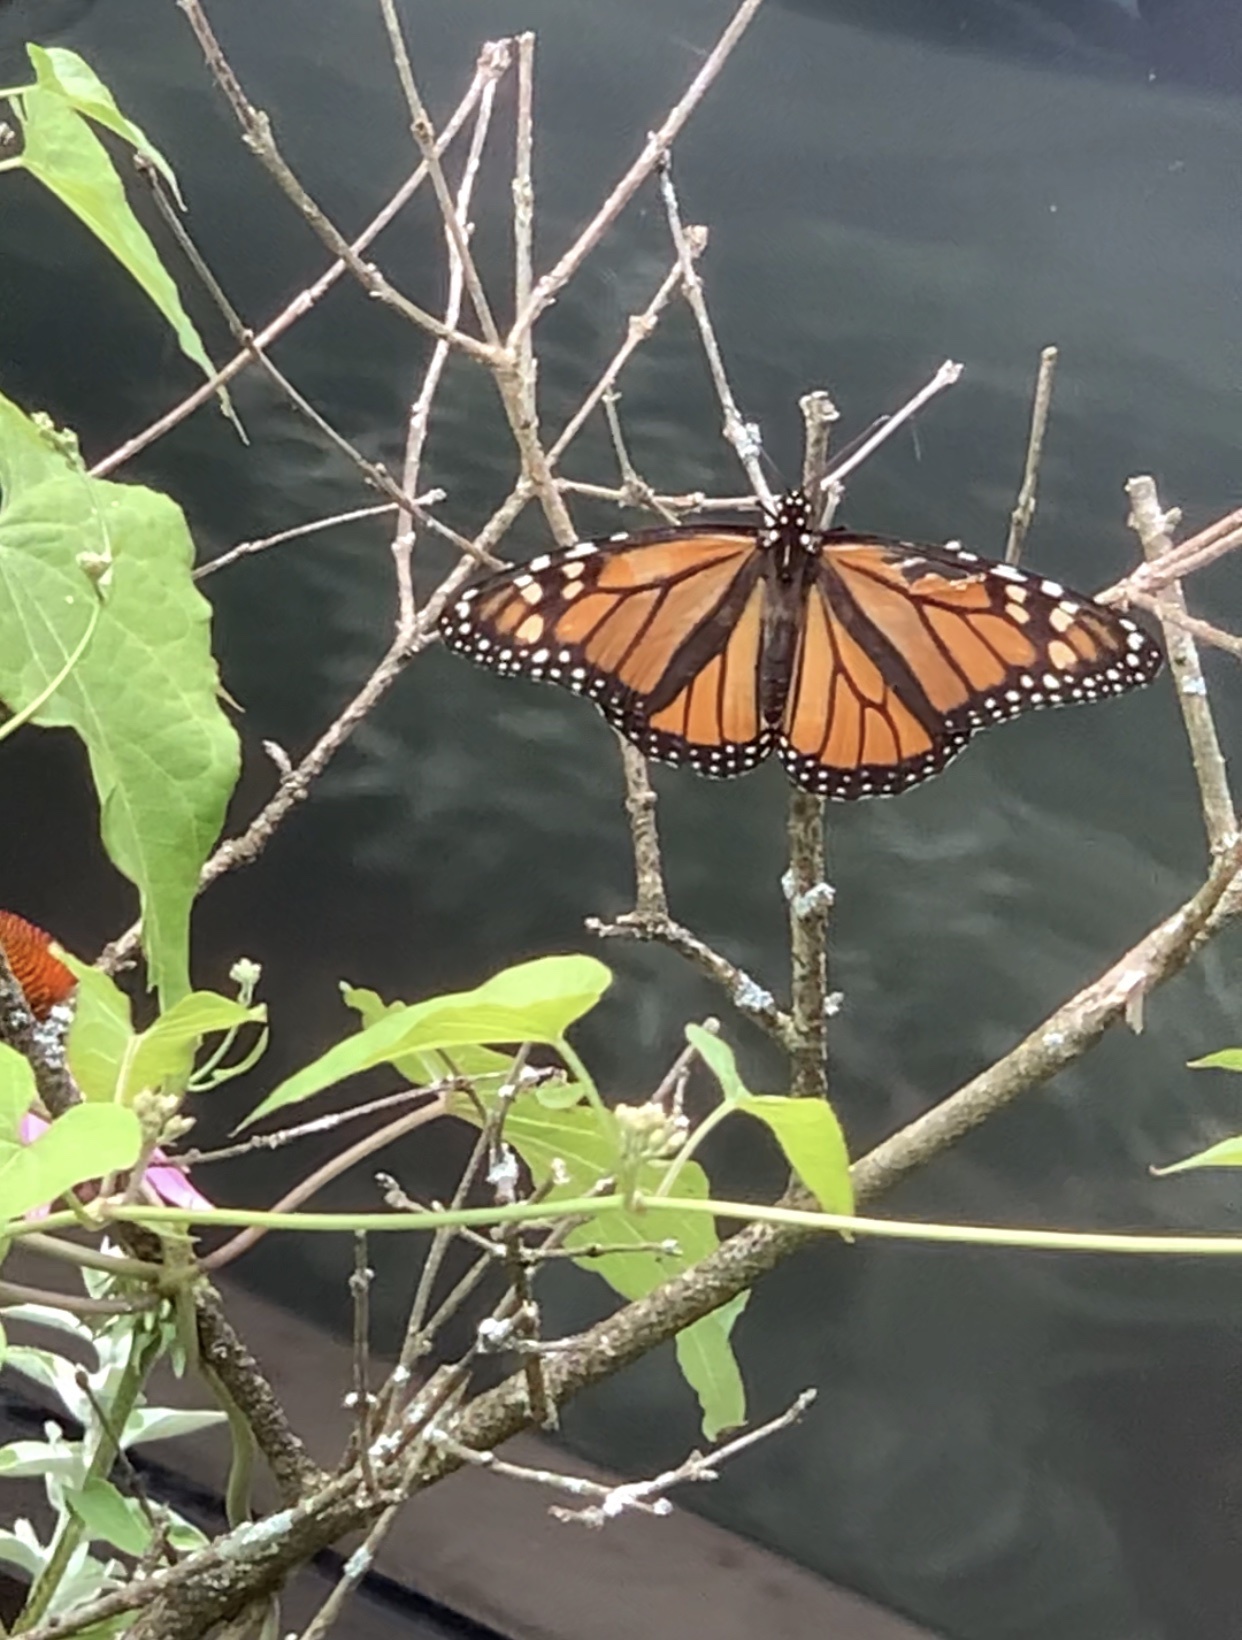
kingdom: Animalia
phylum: Arthropoda
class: Insecta
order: Lepidoptera
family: Nymphalidae
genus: Danaus
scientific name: Danaus plexippus
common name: Monarch
